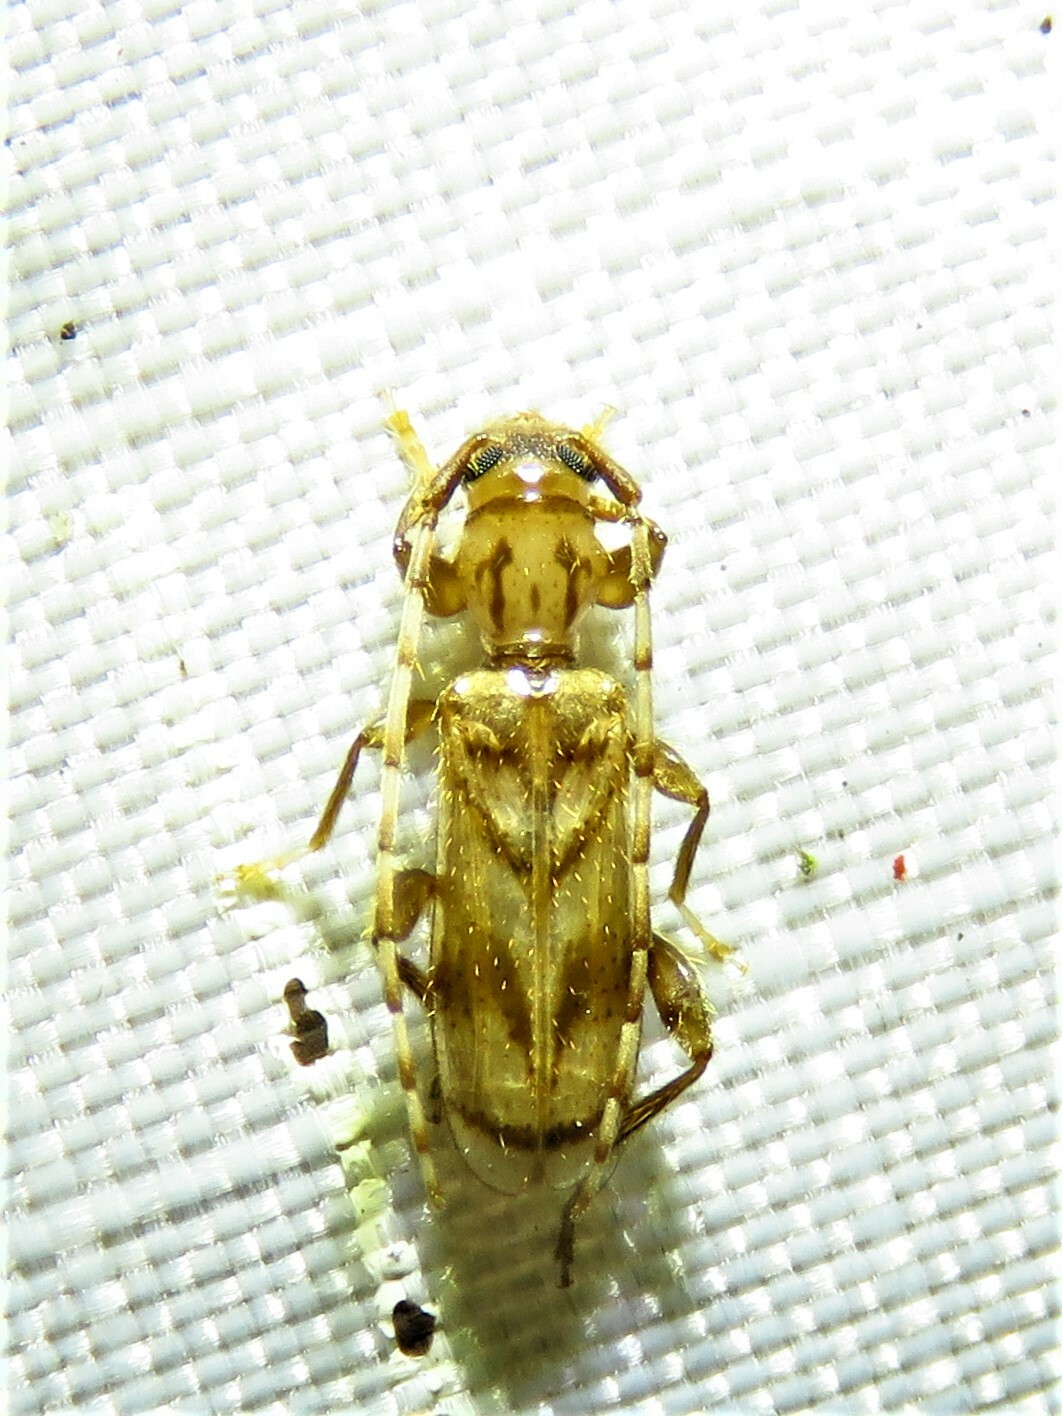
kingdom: Animalia
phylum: Arthropoda
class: Insecta
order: Coleoptera
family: Cerambycidae
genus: Obrium
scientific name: Obrium maculatum
